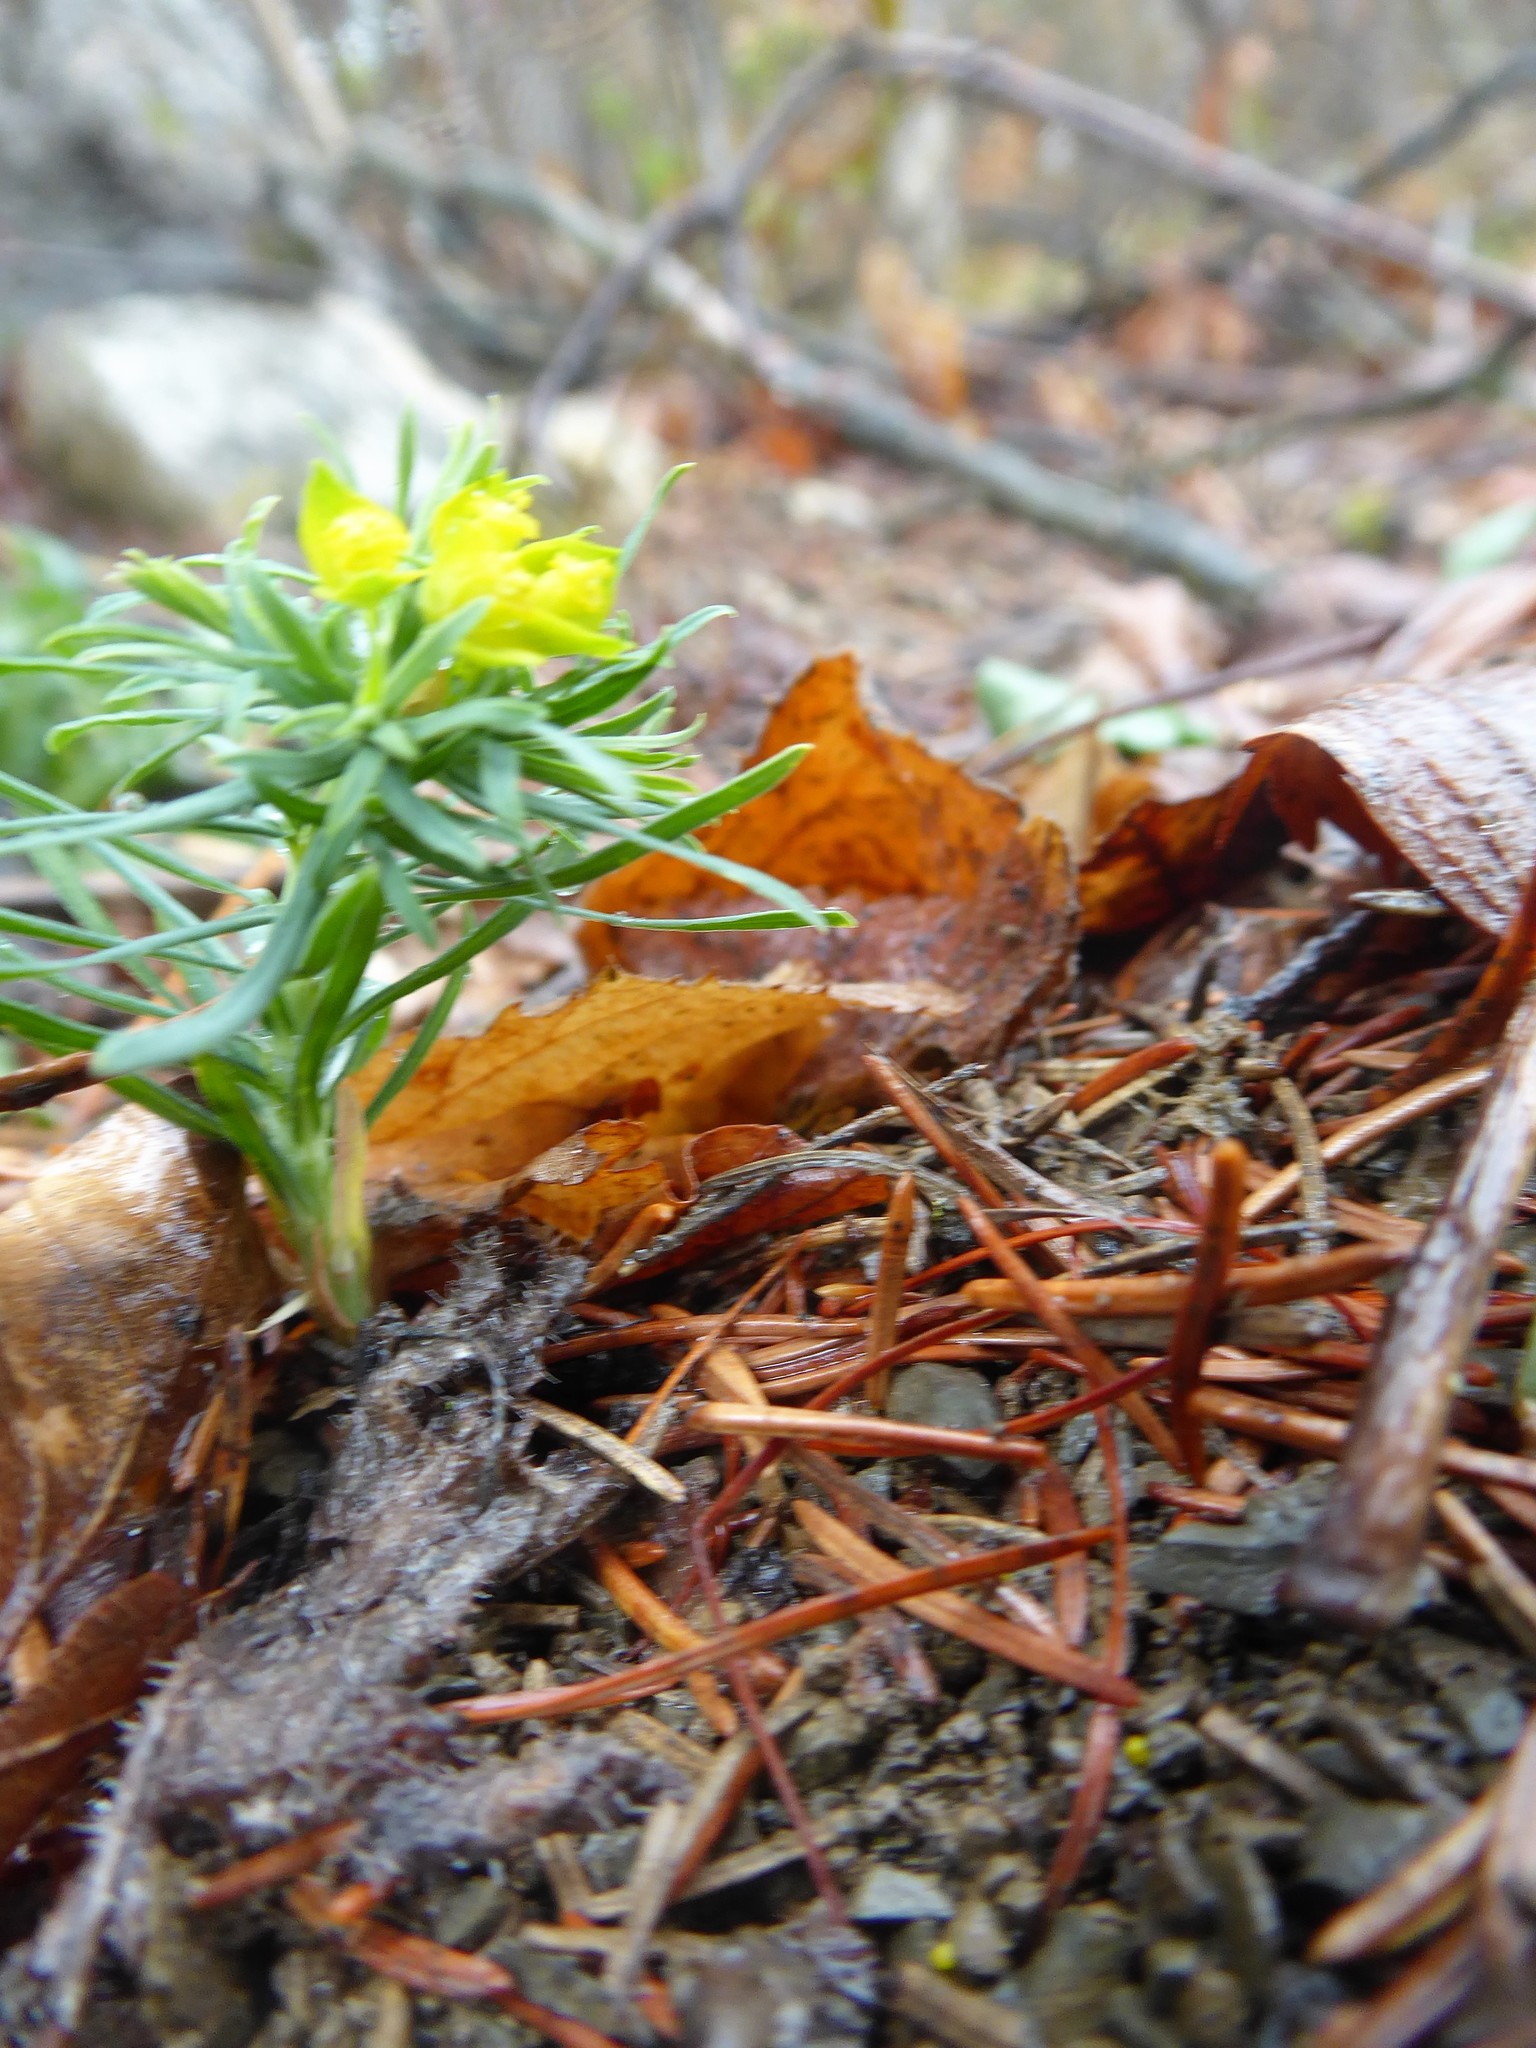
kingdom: Plantae
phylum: Tracheophyta
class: Magnoliopsida
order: Malpighiales
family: Euphorbiaceae
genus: Euphorbia
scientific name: Euphorbia cyparissias
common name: Cypress spurge
